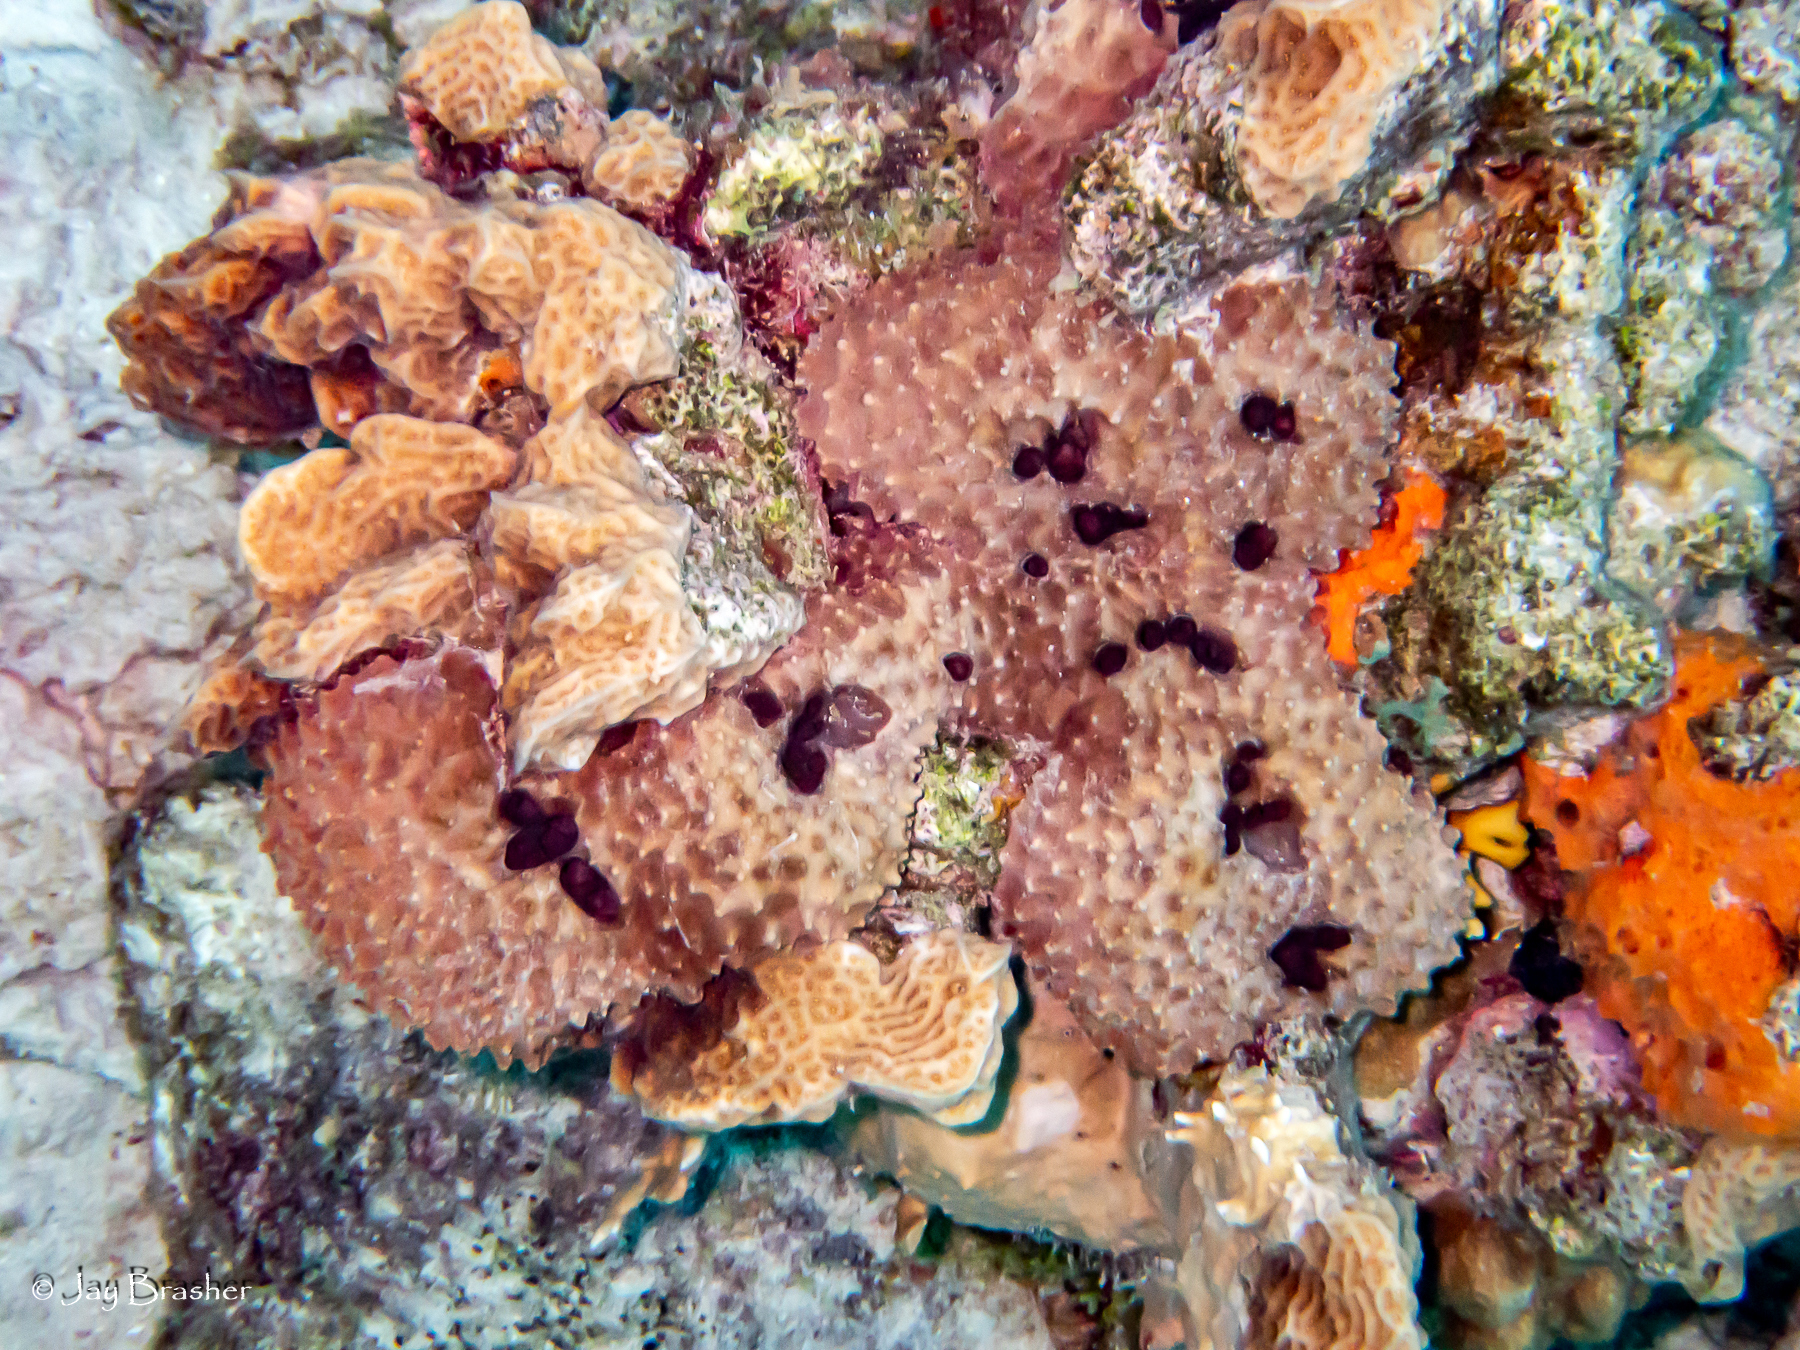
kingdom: Animalia
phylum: Porifera
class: Demospongiae
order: Scopalinida
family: Scopalinidae
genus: Scopalina
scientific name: Scopalina ruetzleri
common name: Orange lumpy encrusting sponge
